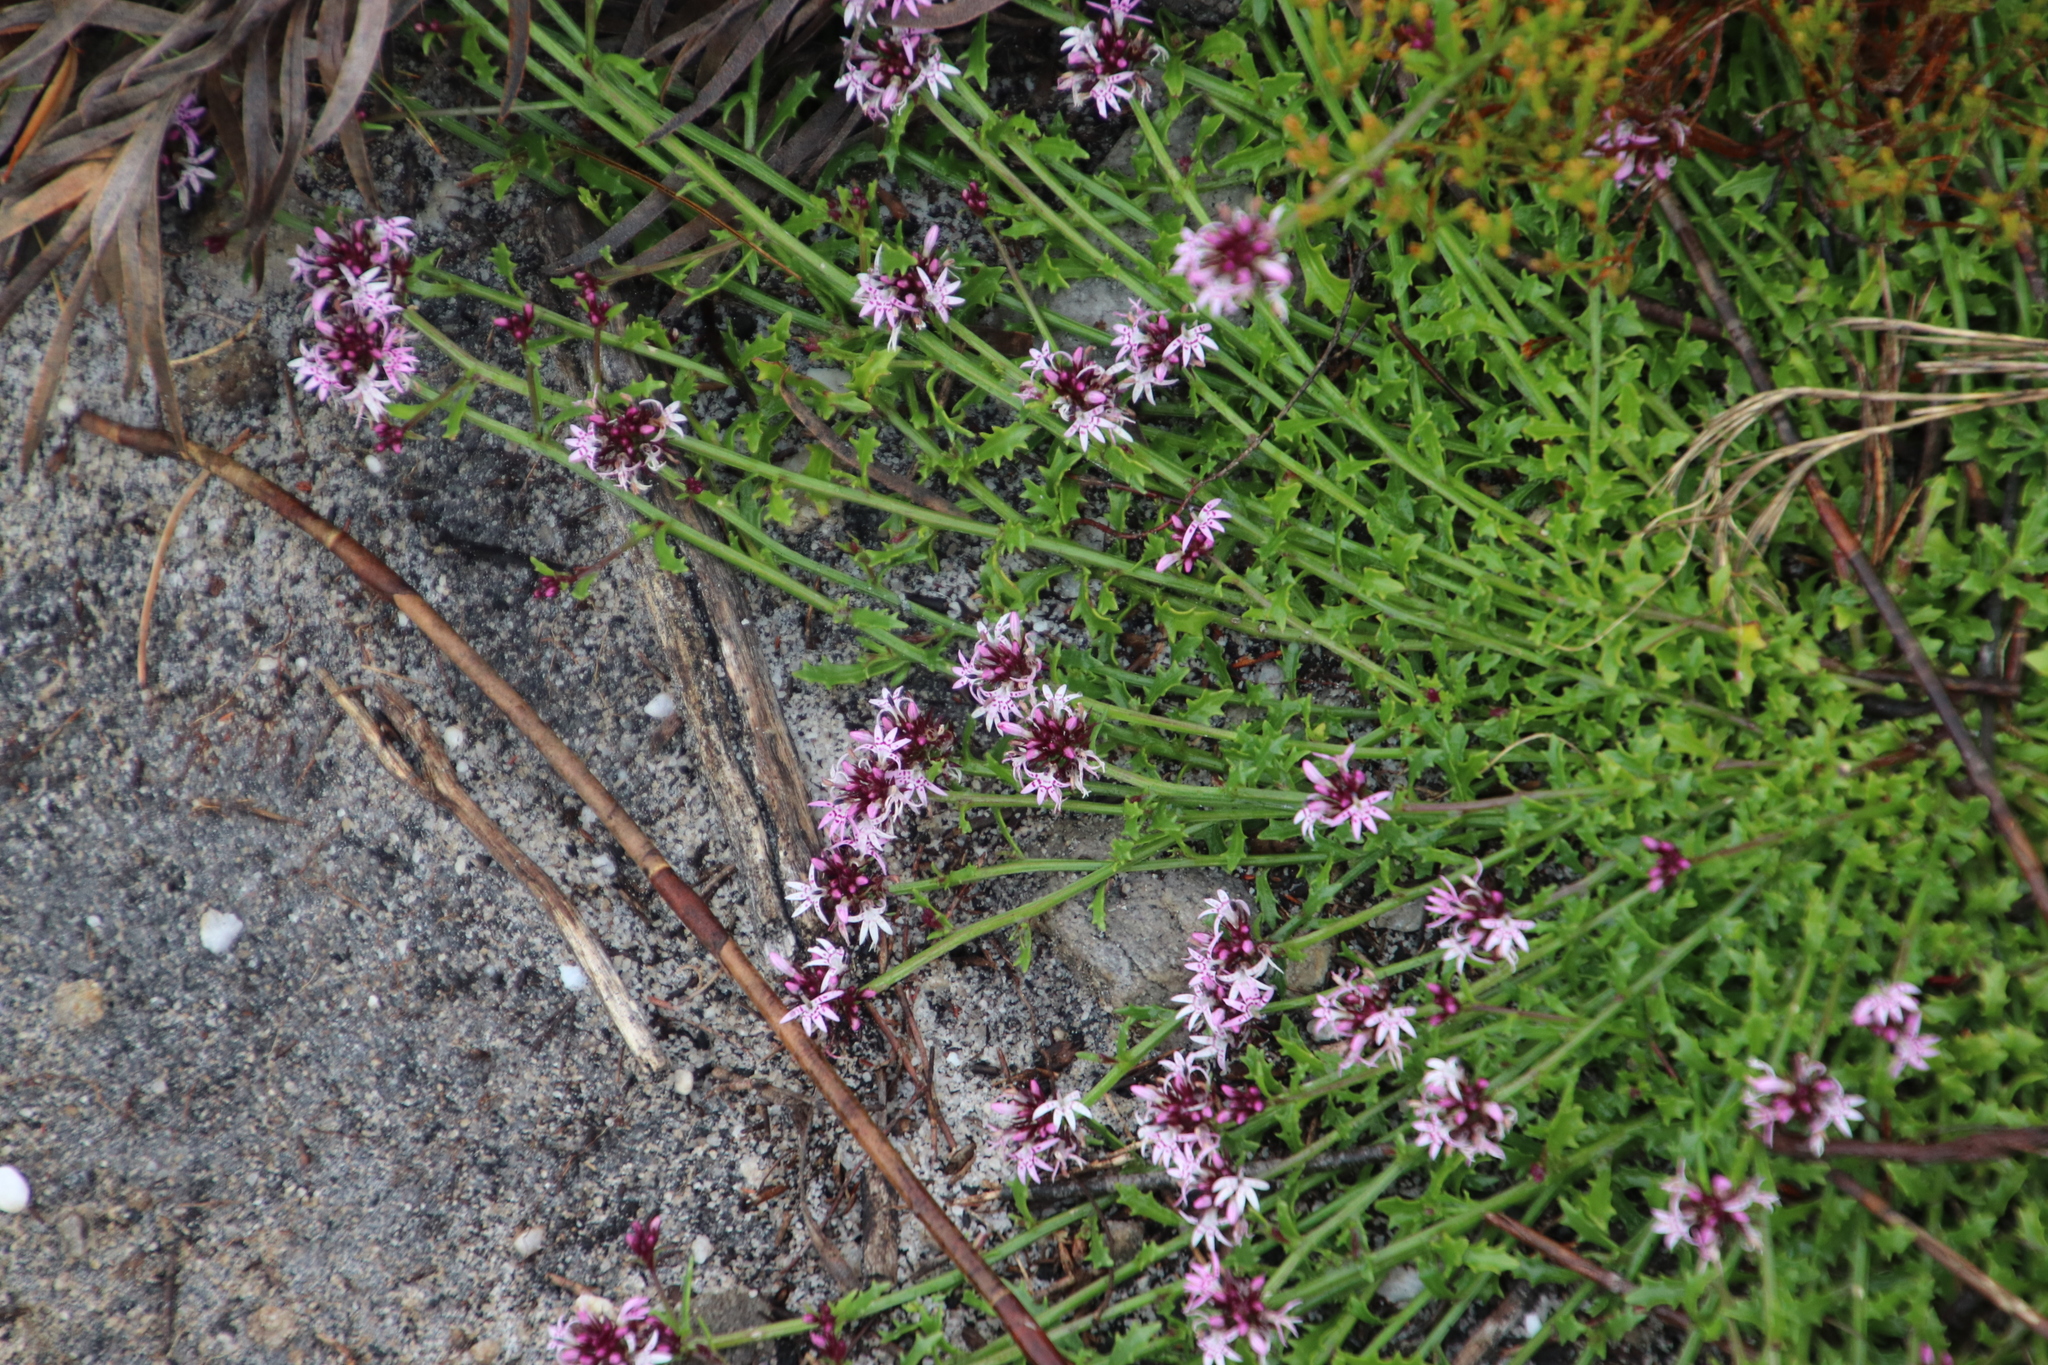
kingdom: Plantae
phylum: Tracheophyta
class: Magnoliopsida
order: Asterales
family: Campanulaceae
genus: Lobelia
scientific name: Lobelia jasionoides
